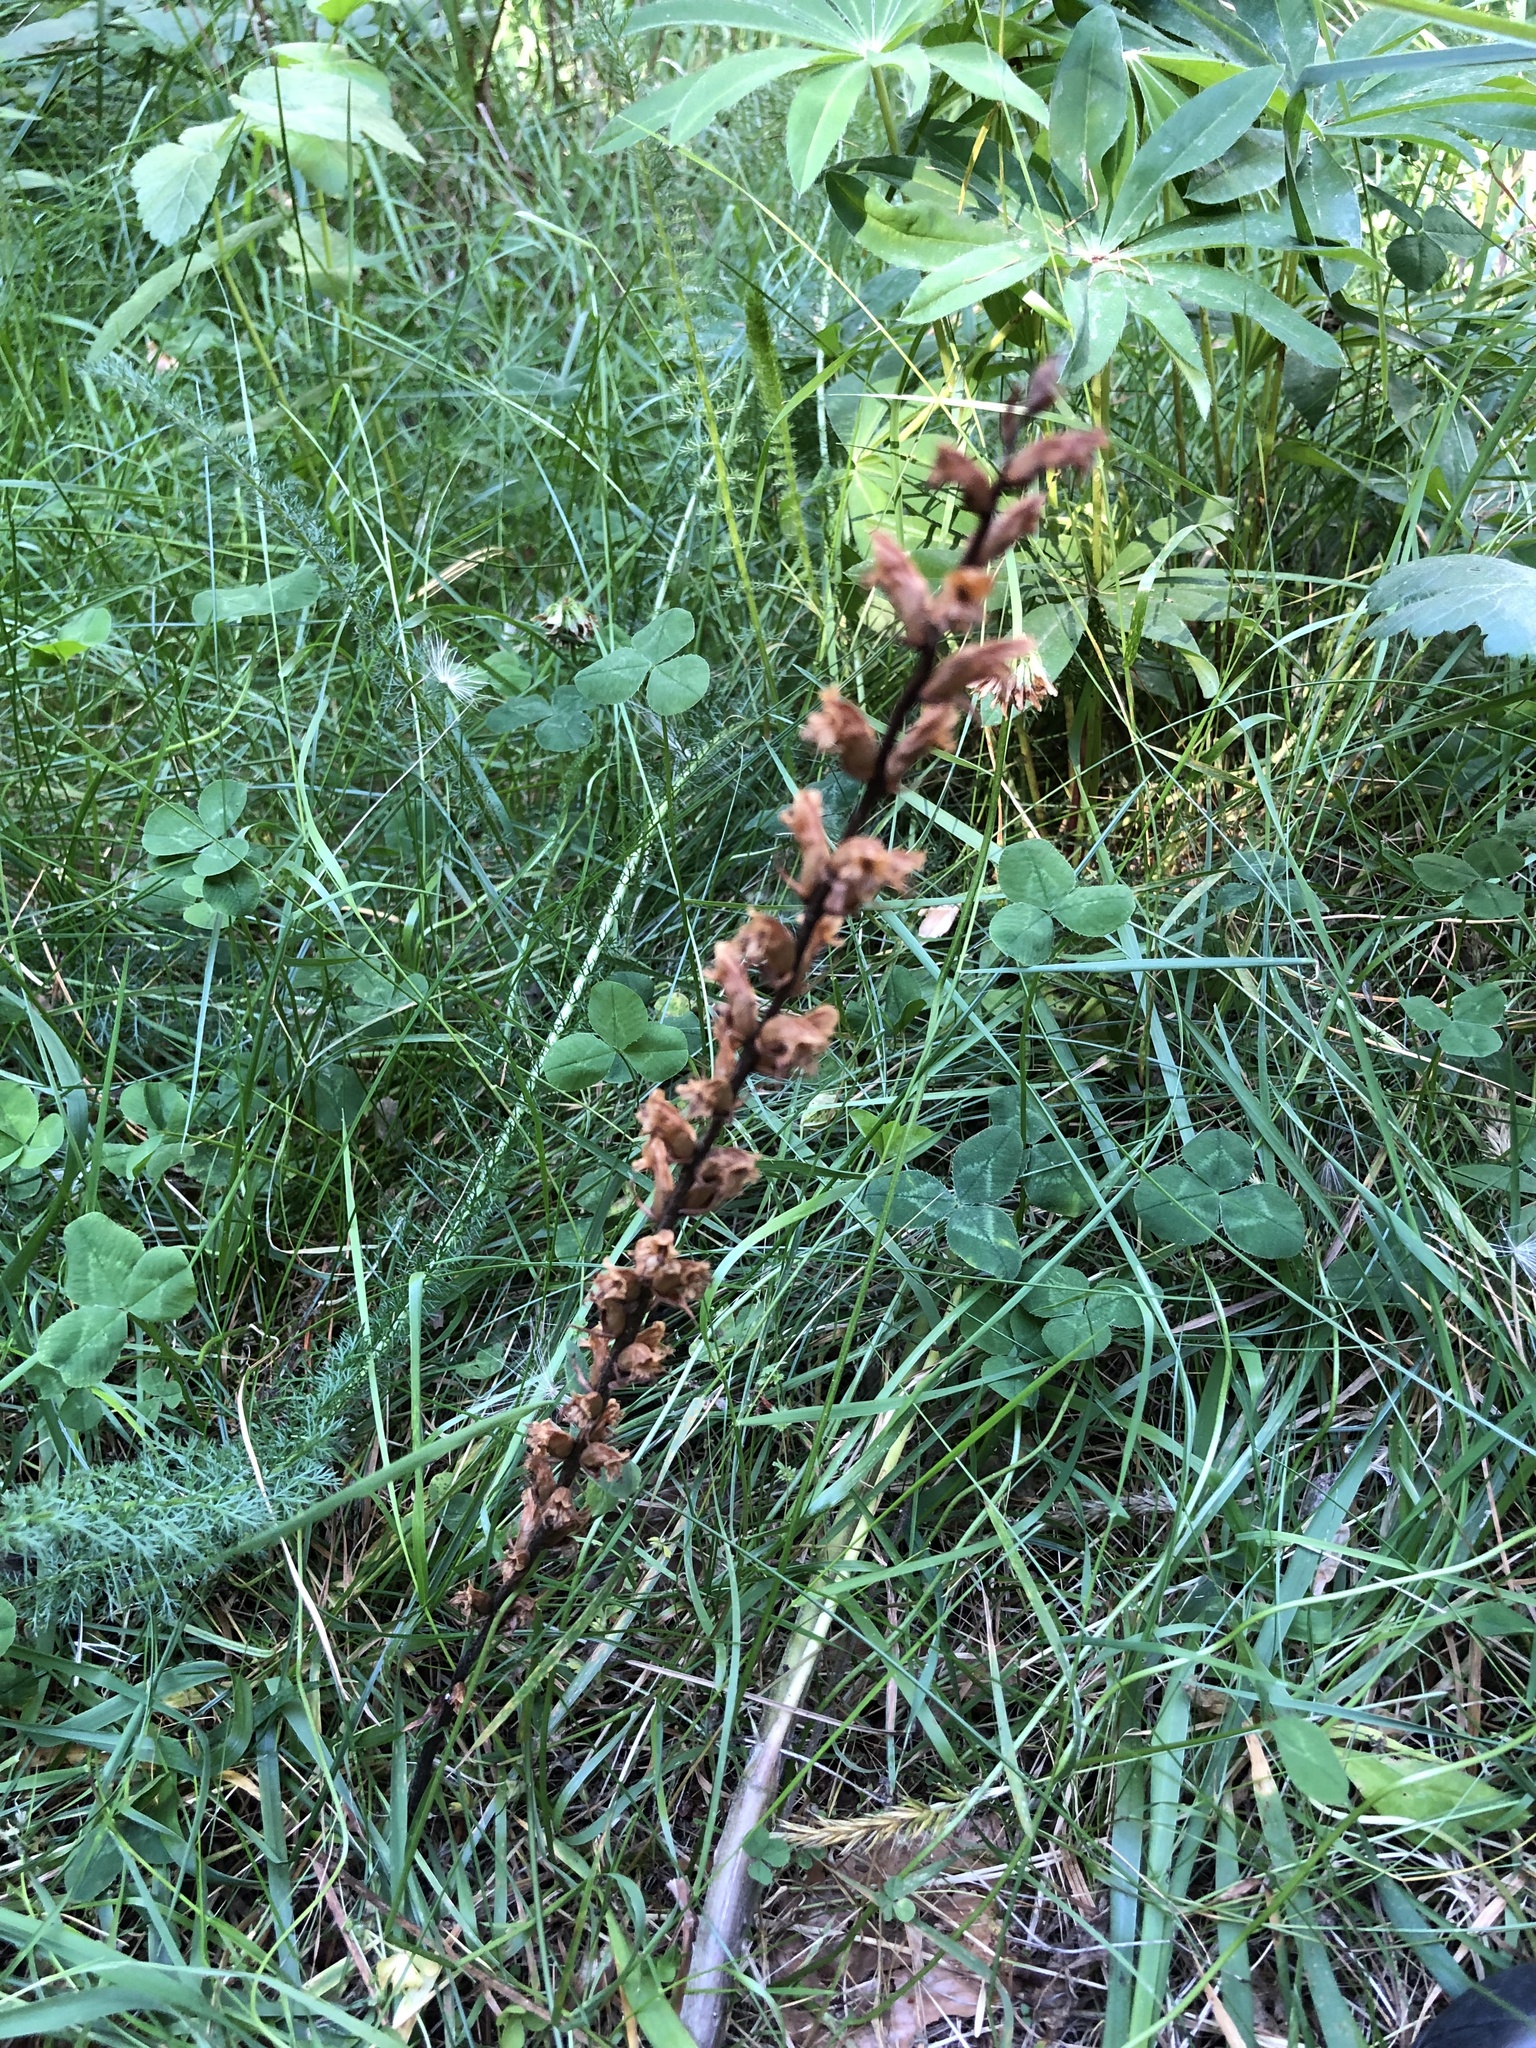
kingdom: Plantae
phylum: Tracheophyta
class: Magnoliopsida
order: Lamiales
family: Orobanchaceae
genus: Orobanche
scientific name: Orobanche minor
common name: Common broomrape
